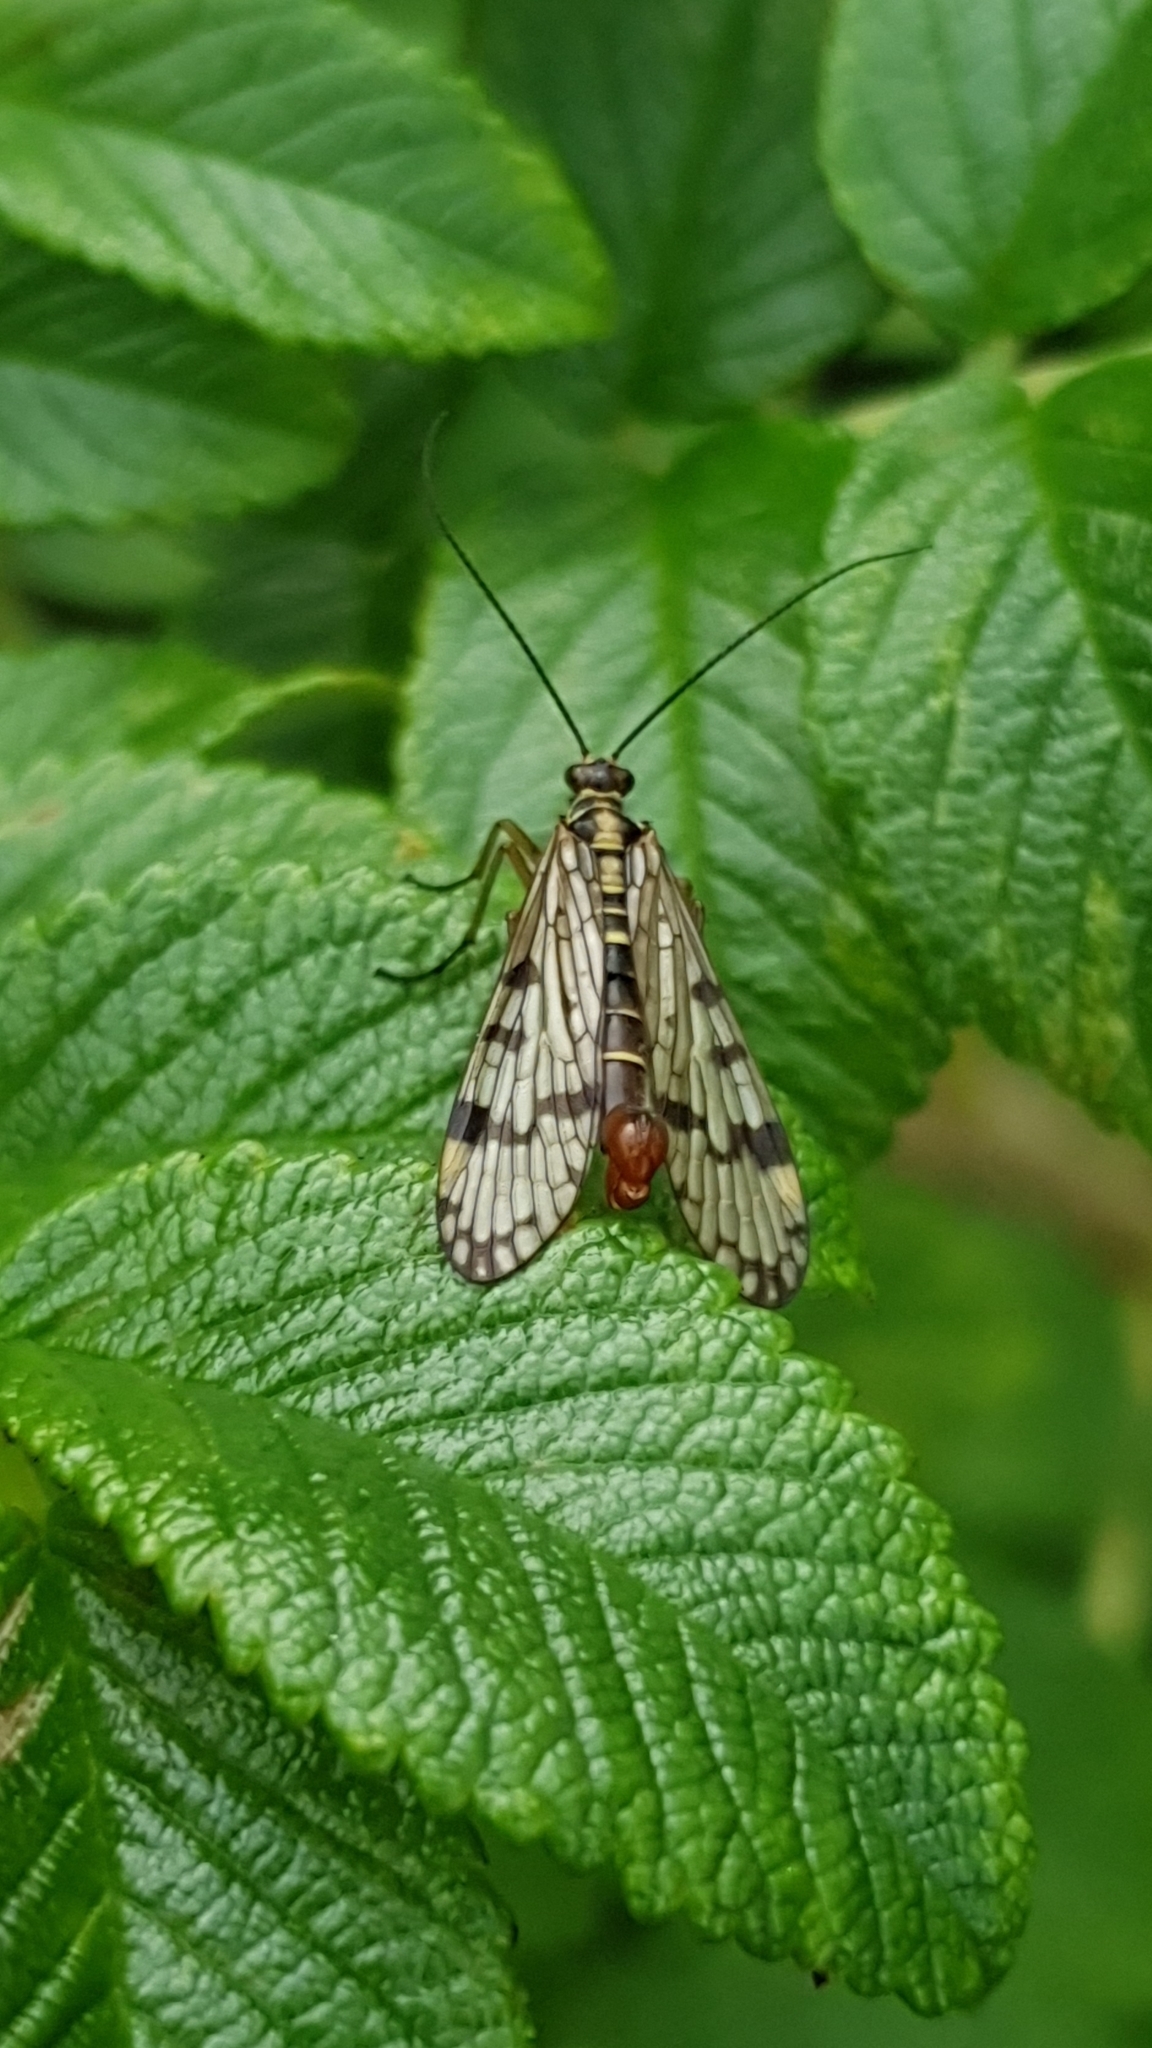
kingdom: Animalia
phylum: Arthropoda
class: Insecta
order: Mecoptera
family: Panorpidae
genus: Panorpa
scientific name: Panorpa communis
